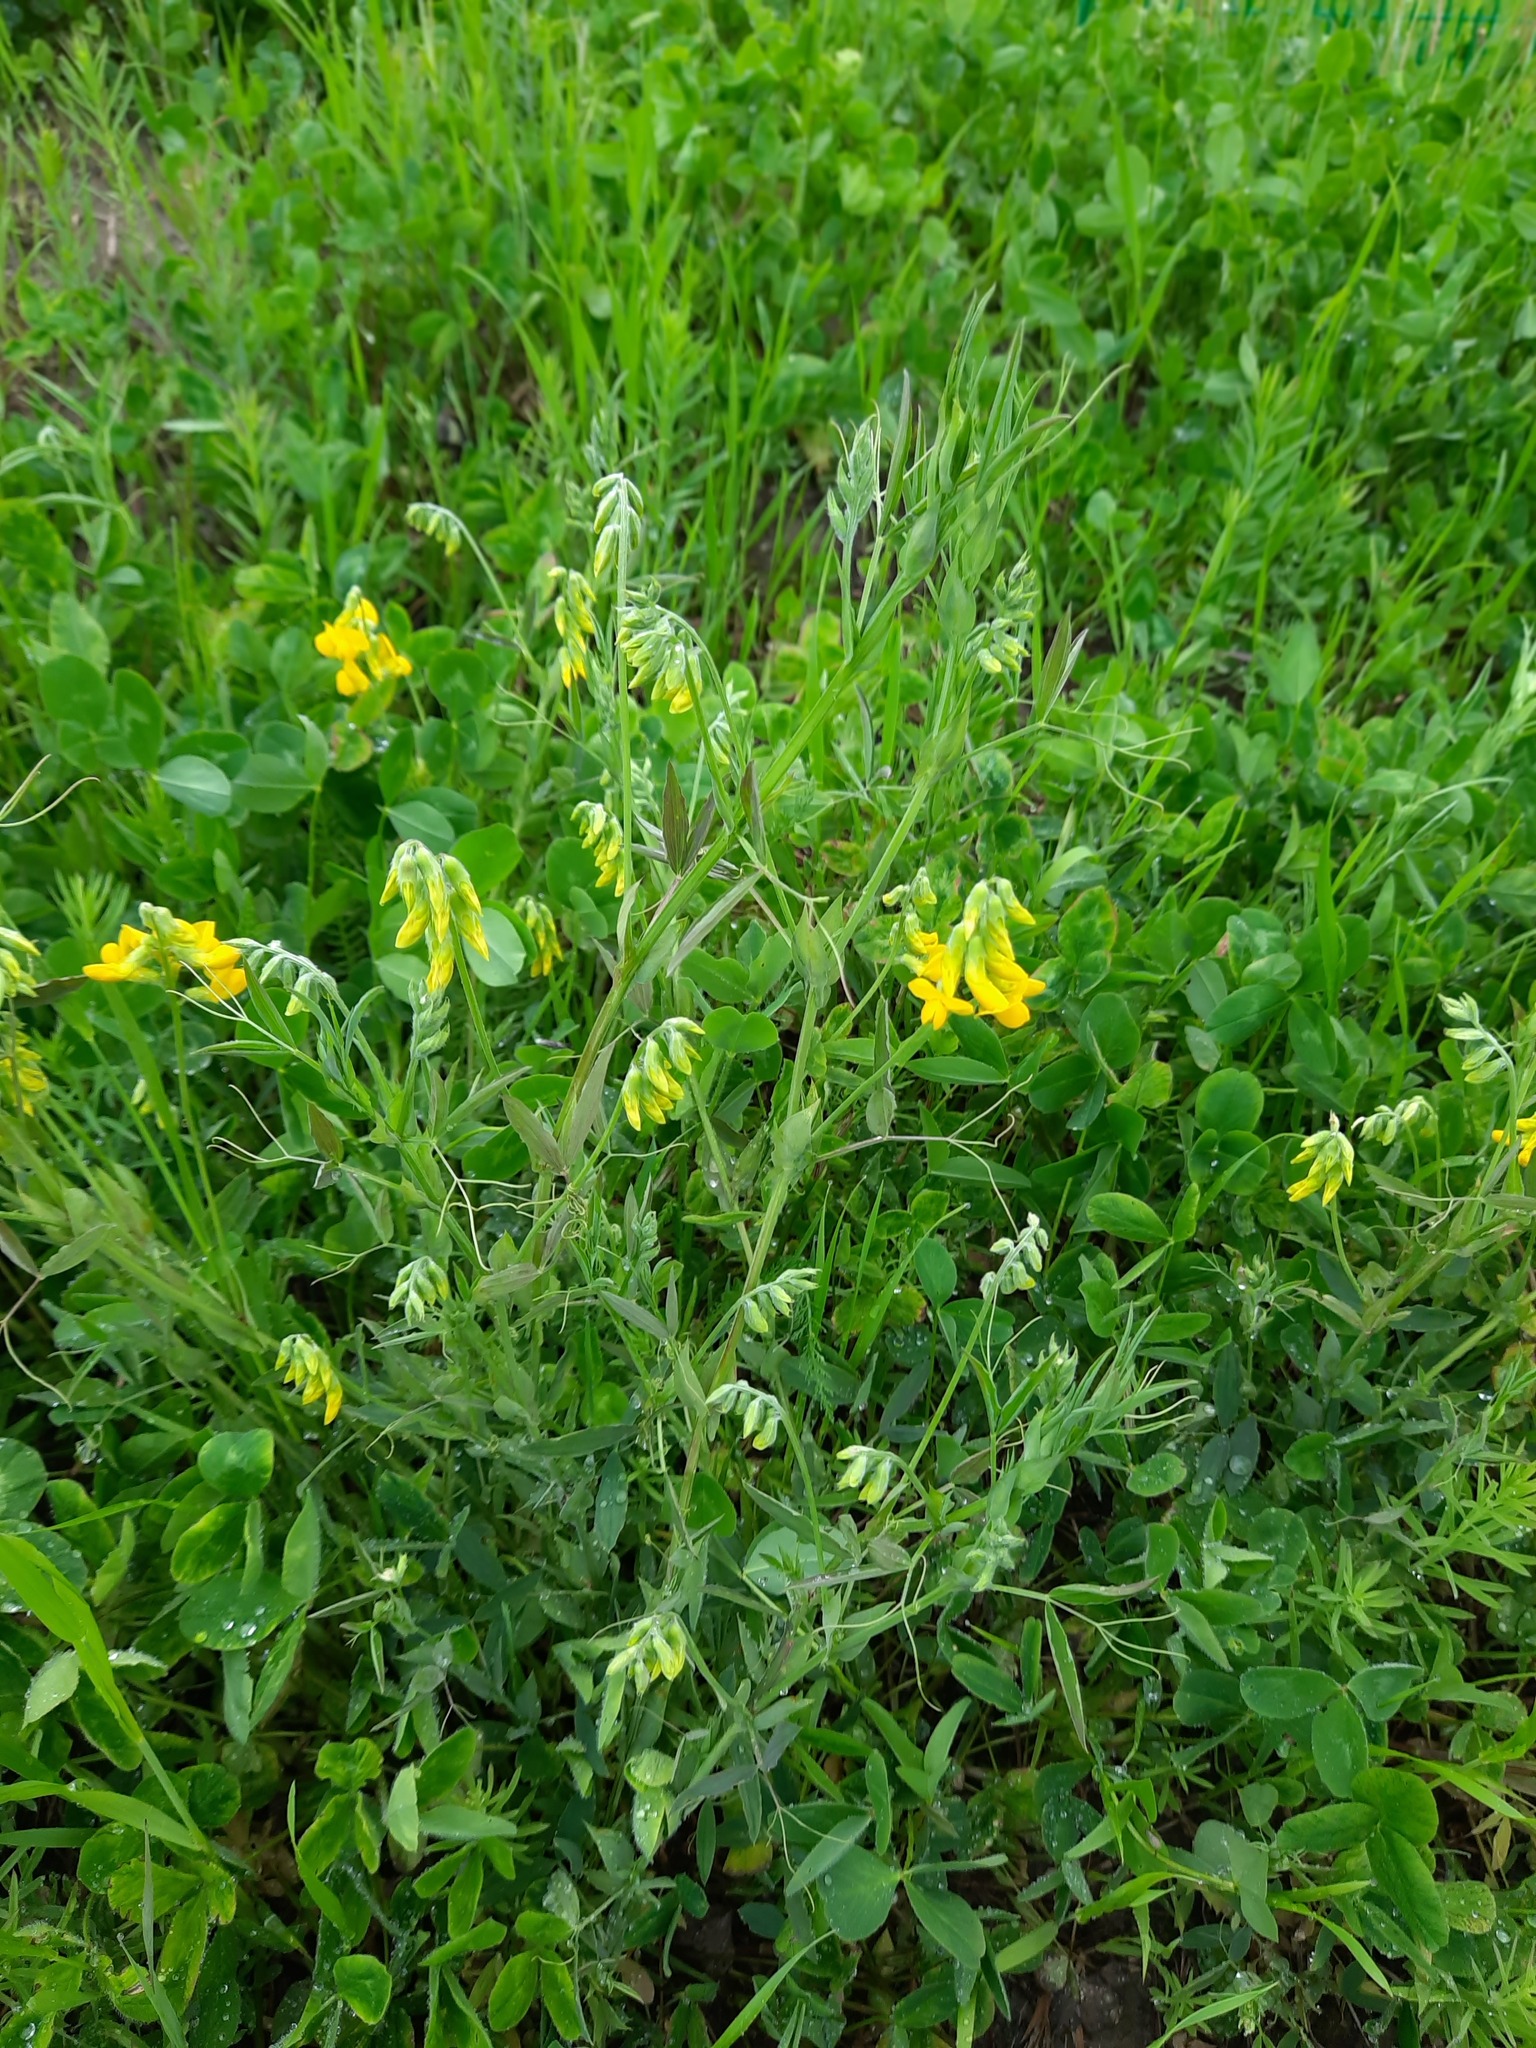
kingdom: Plantae
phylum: Tracheophyta
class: Magnoliopsida
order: Fabales
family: Fabaceae
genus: Lathyrus
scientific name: Lathyrus pratensis
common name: Meadow vetchling
